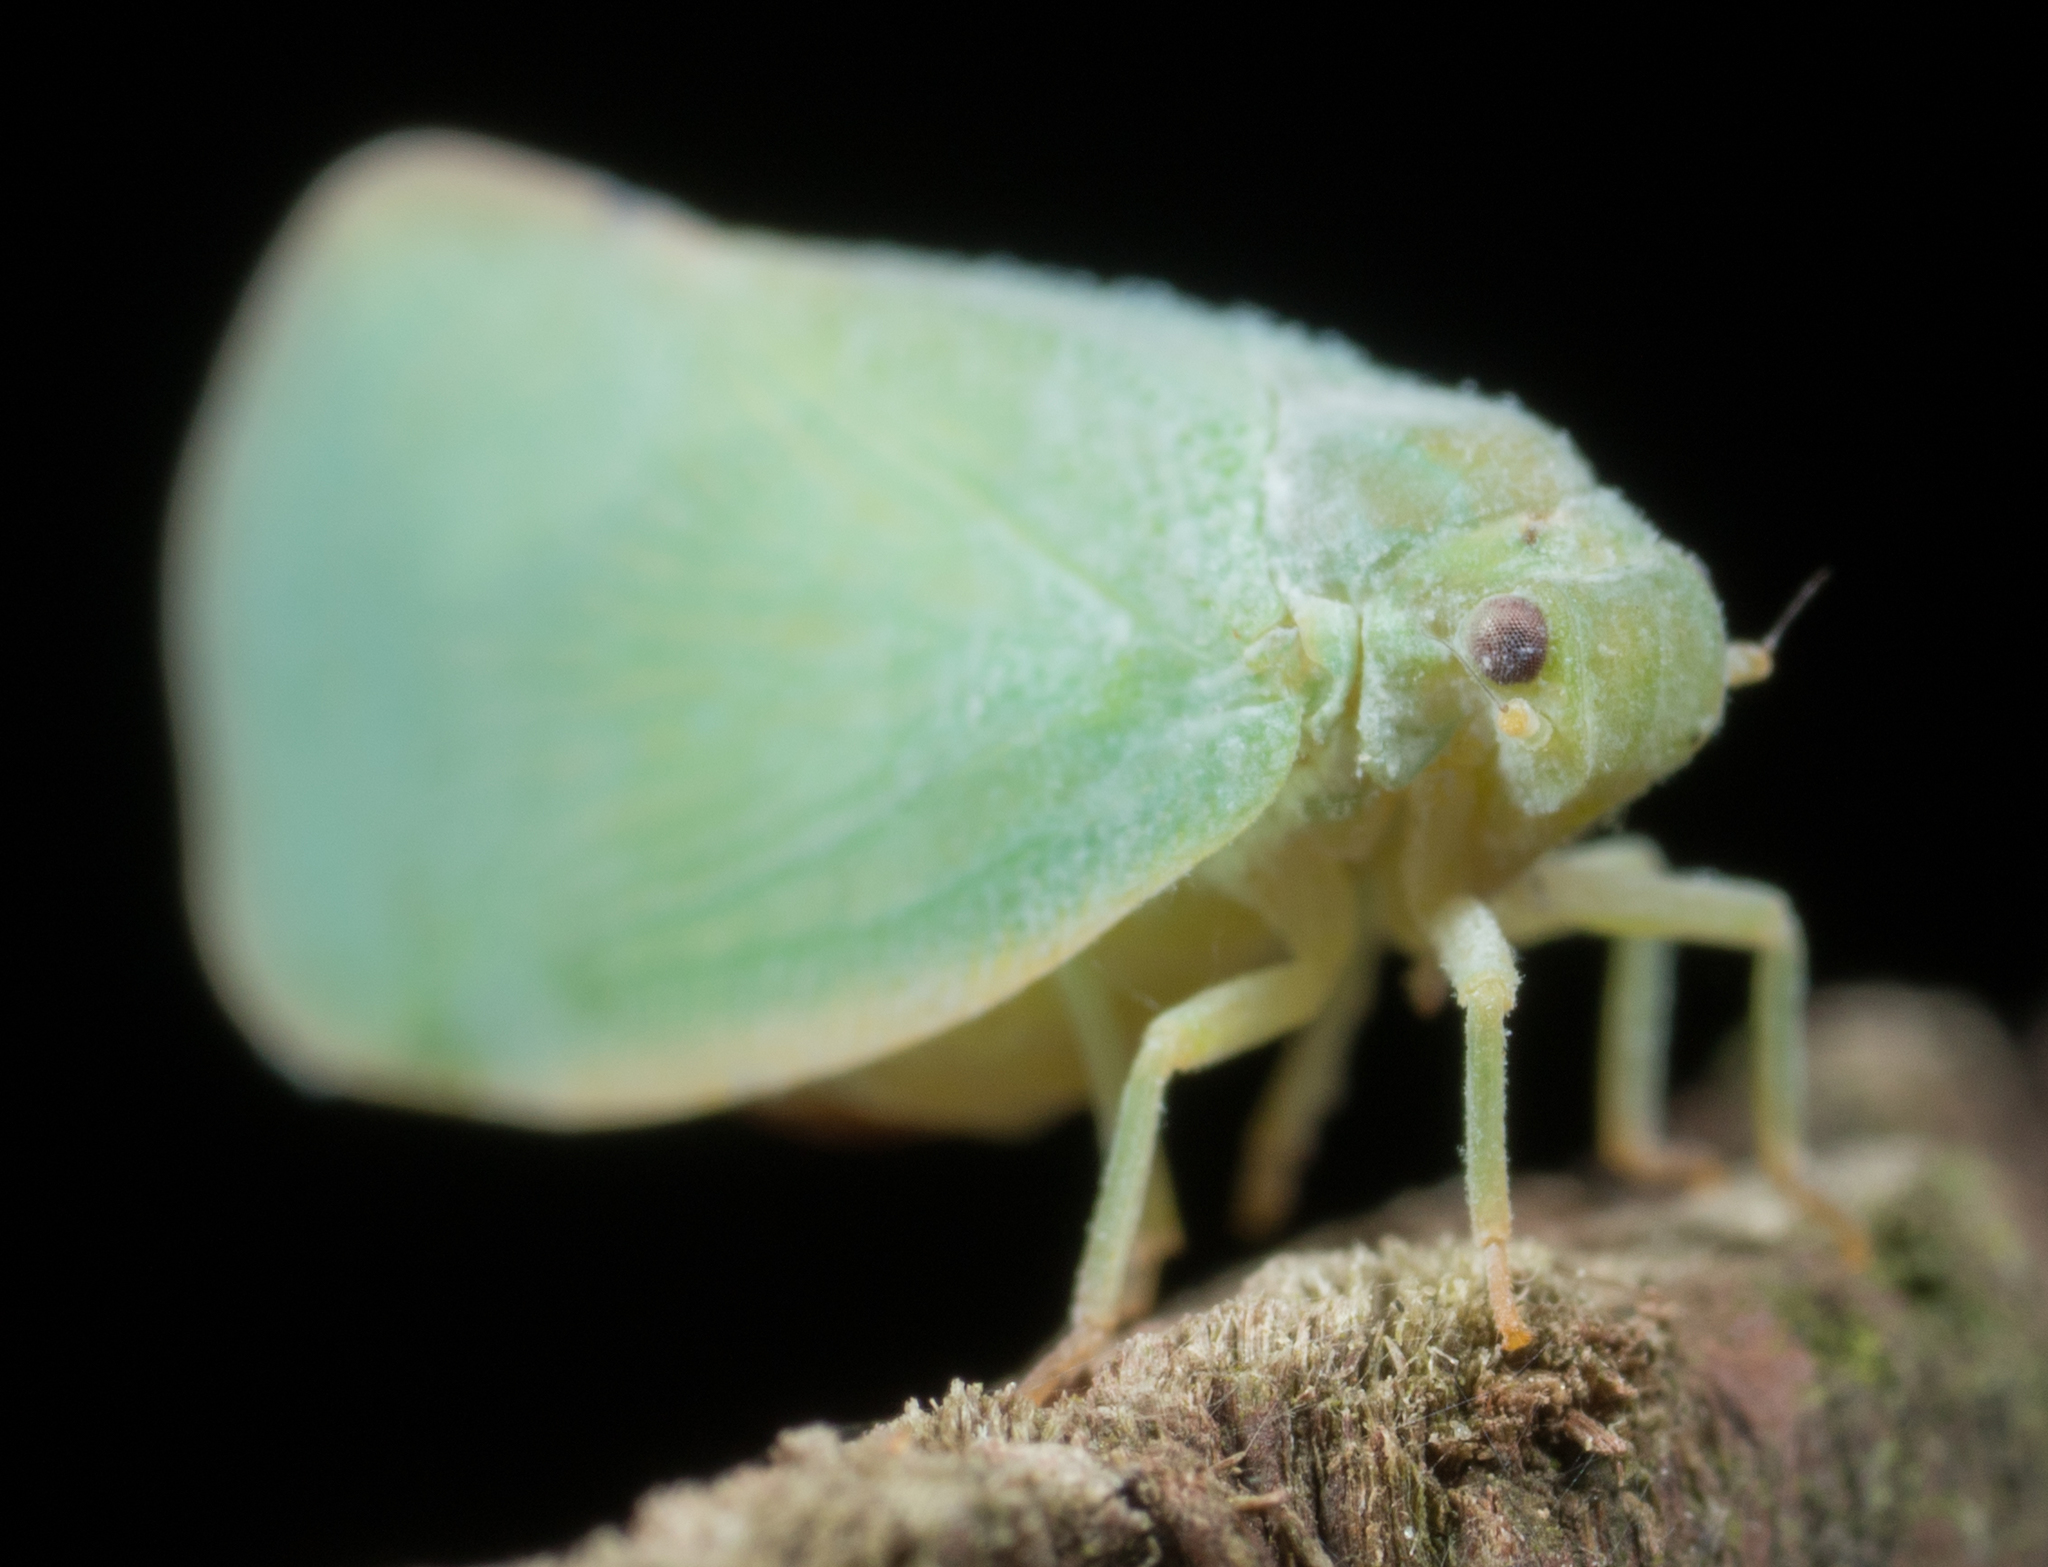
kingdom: Animalia
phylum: Arthropoda
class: Insecta
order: Hemiptera
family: Flatidae
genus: Ormenoides
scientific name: Ormenoides venusta
